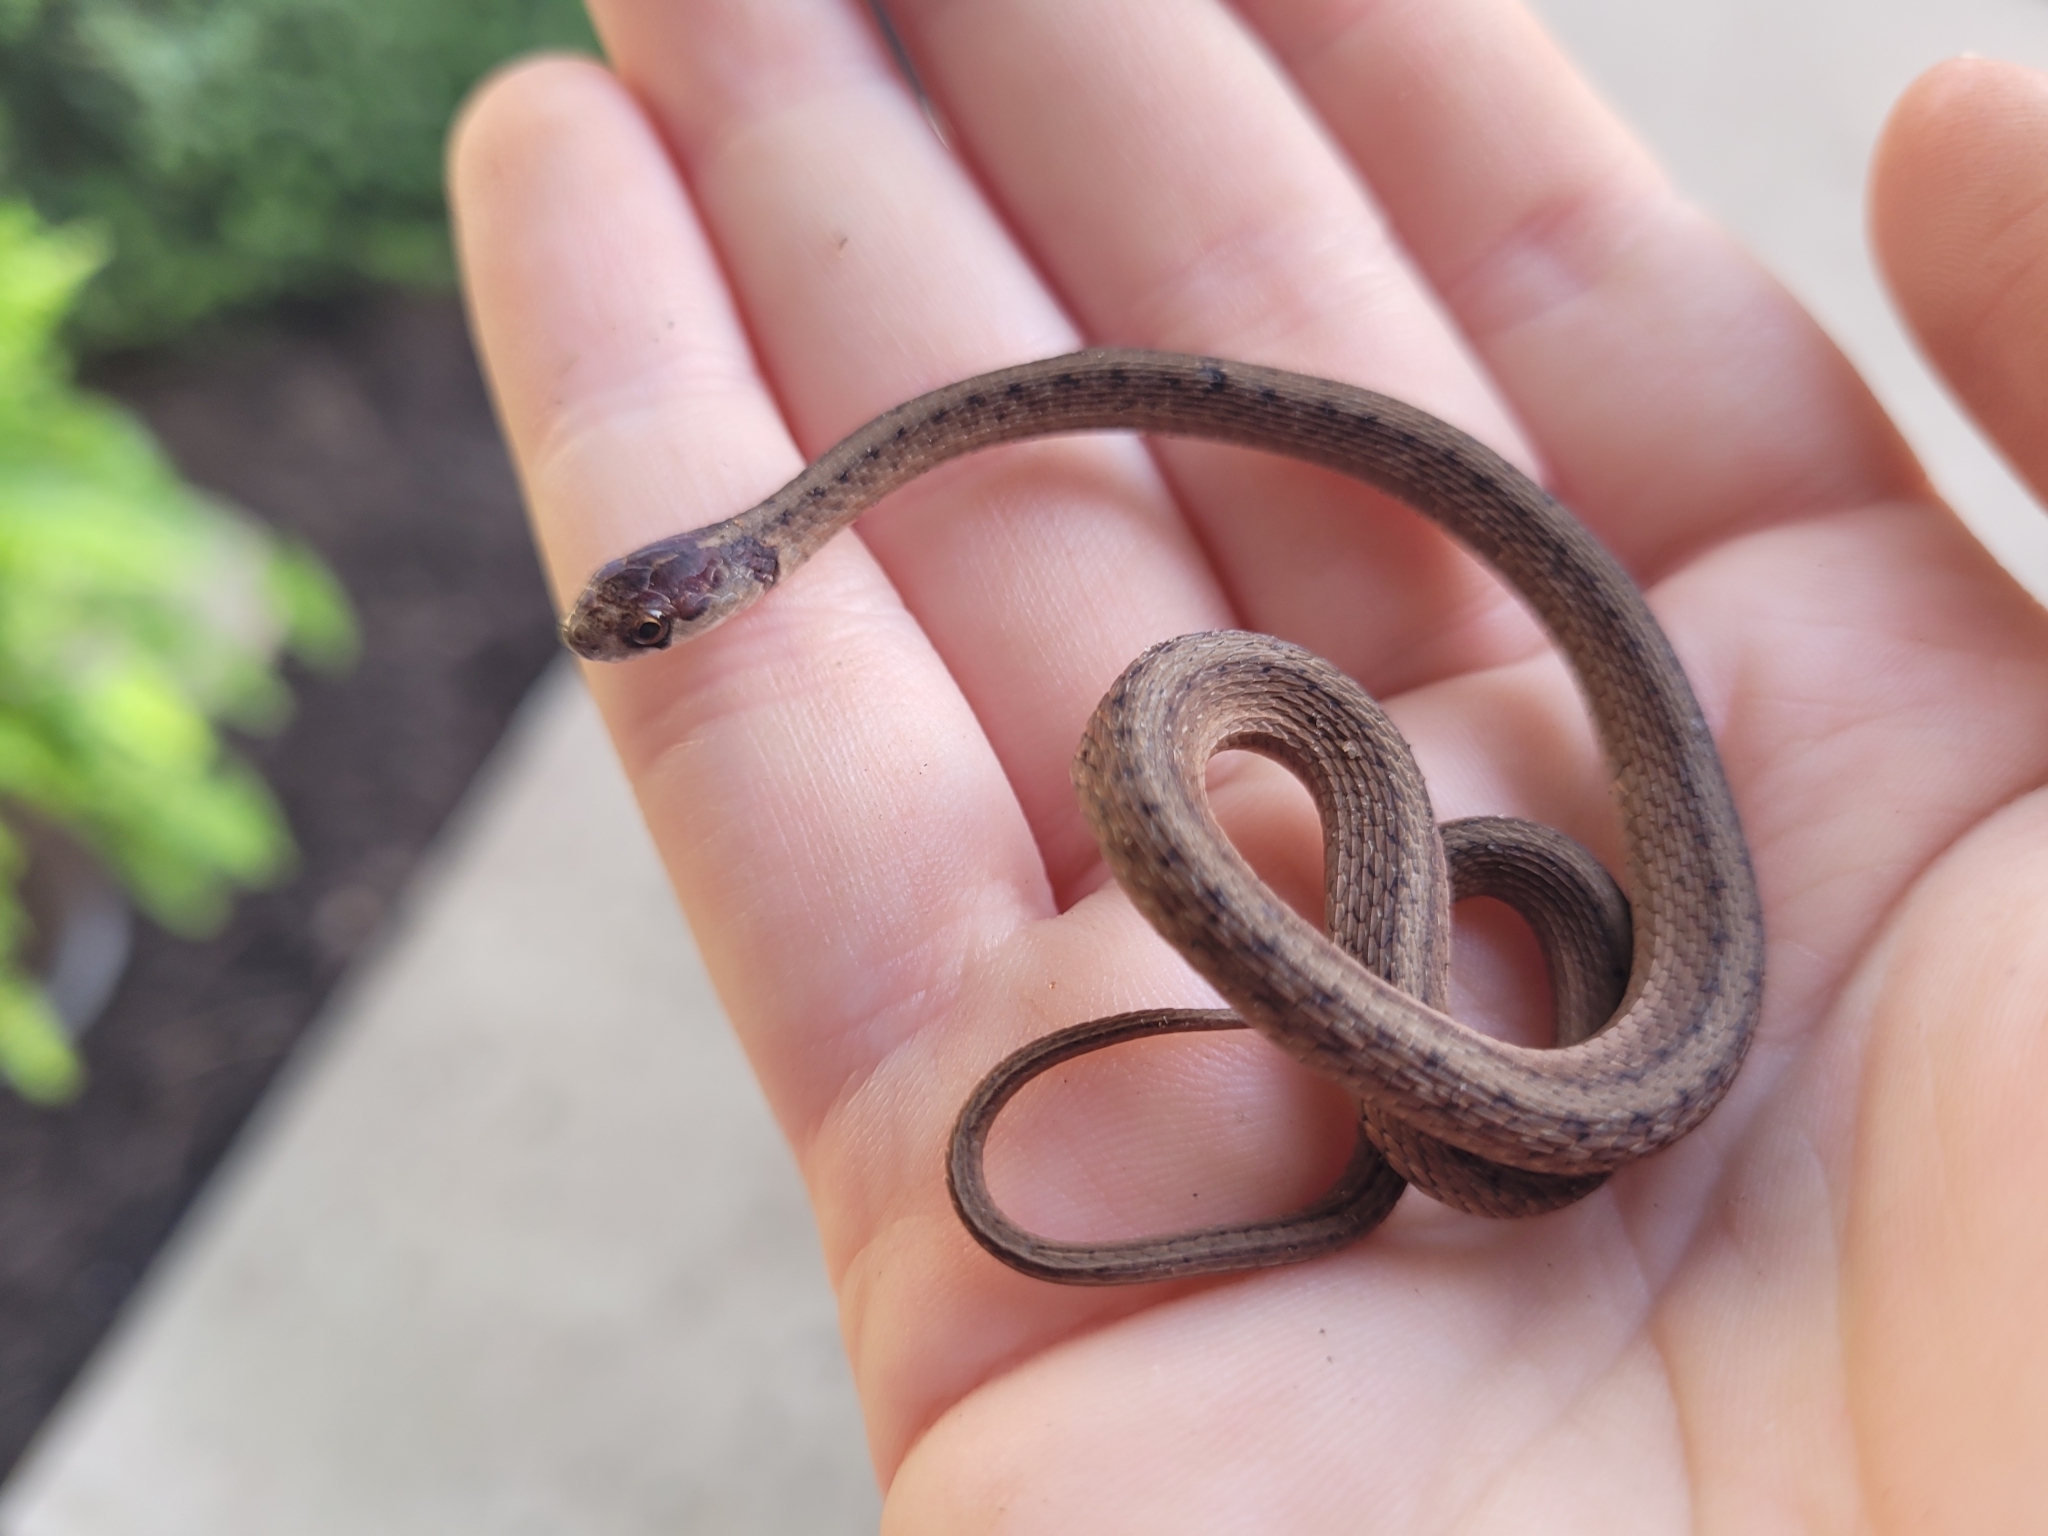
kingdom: Animalia
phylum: Chordata
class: Squamata
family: Colubridae
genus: Storeria
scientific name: Storeria dekayi
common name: (dekay’s) brown snake
